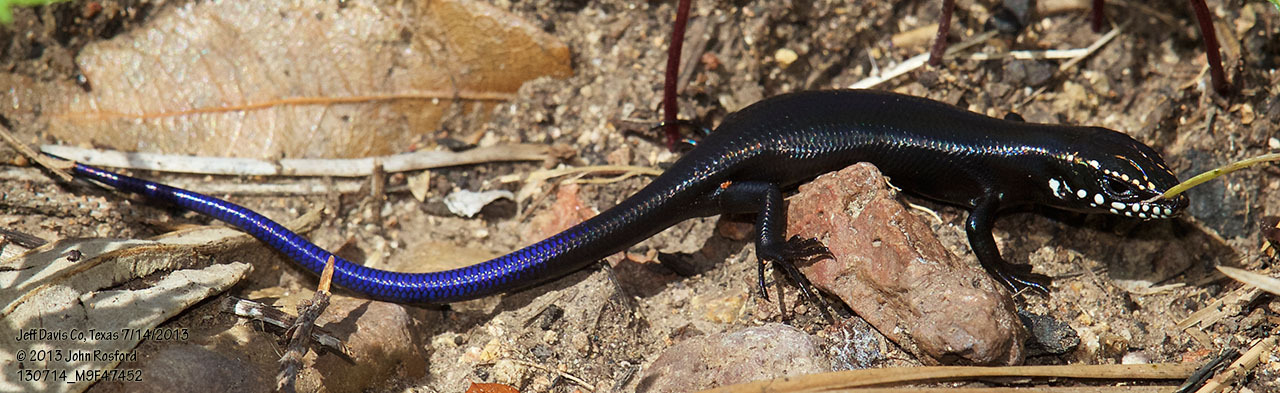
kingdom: Animalia
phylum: Chordata
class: Squamata
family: Scincidae
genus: Plestiodon
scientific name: Plestiodon obsoletus
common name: Great plains skink
